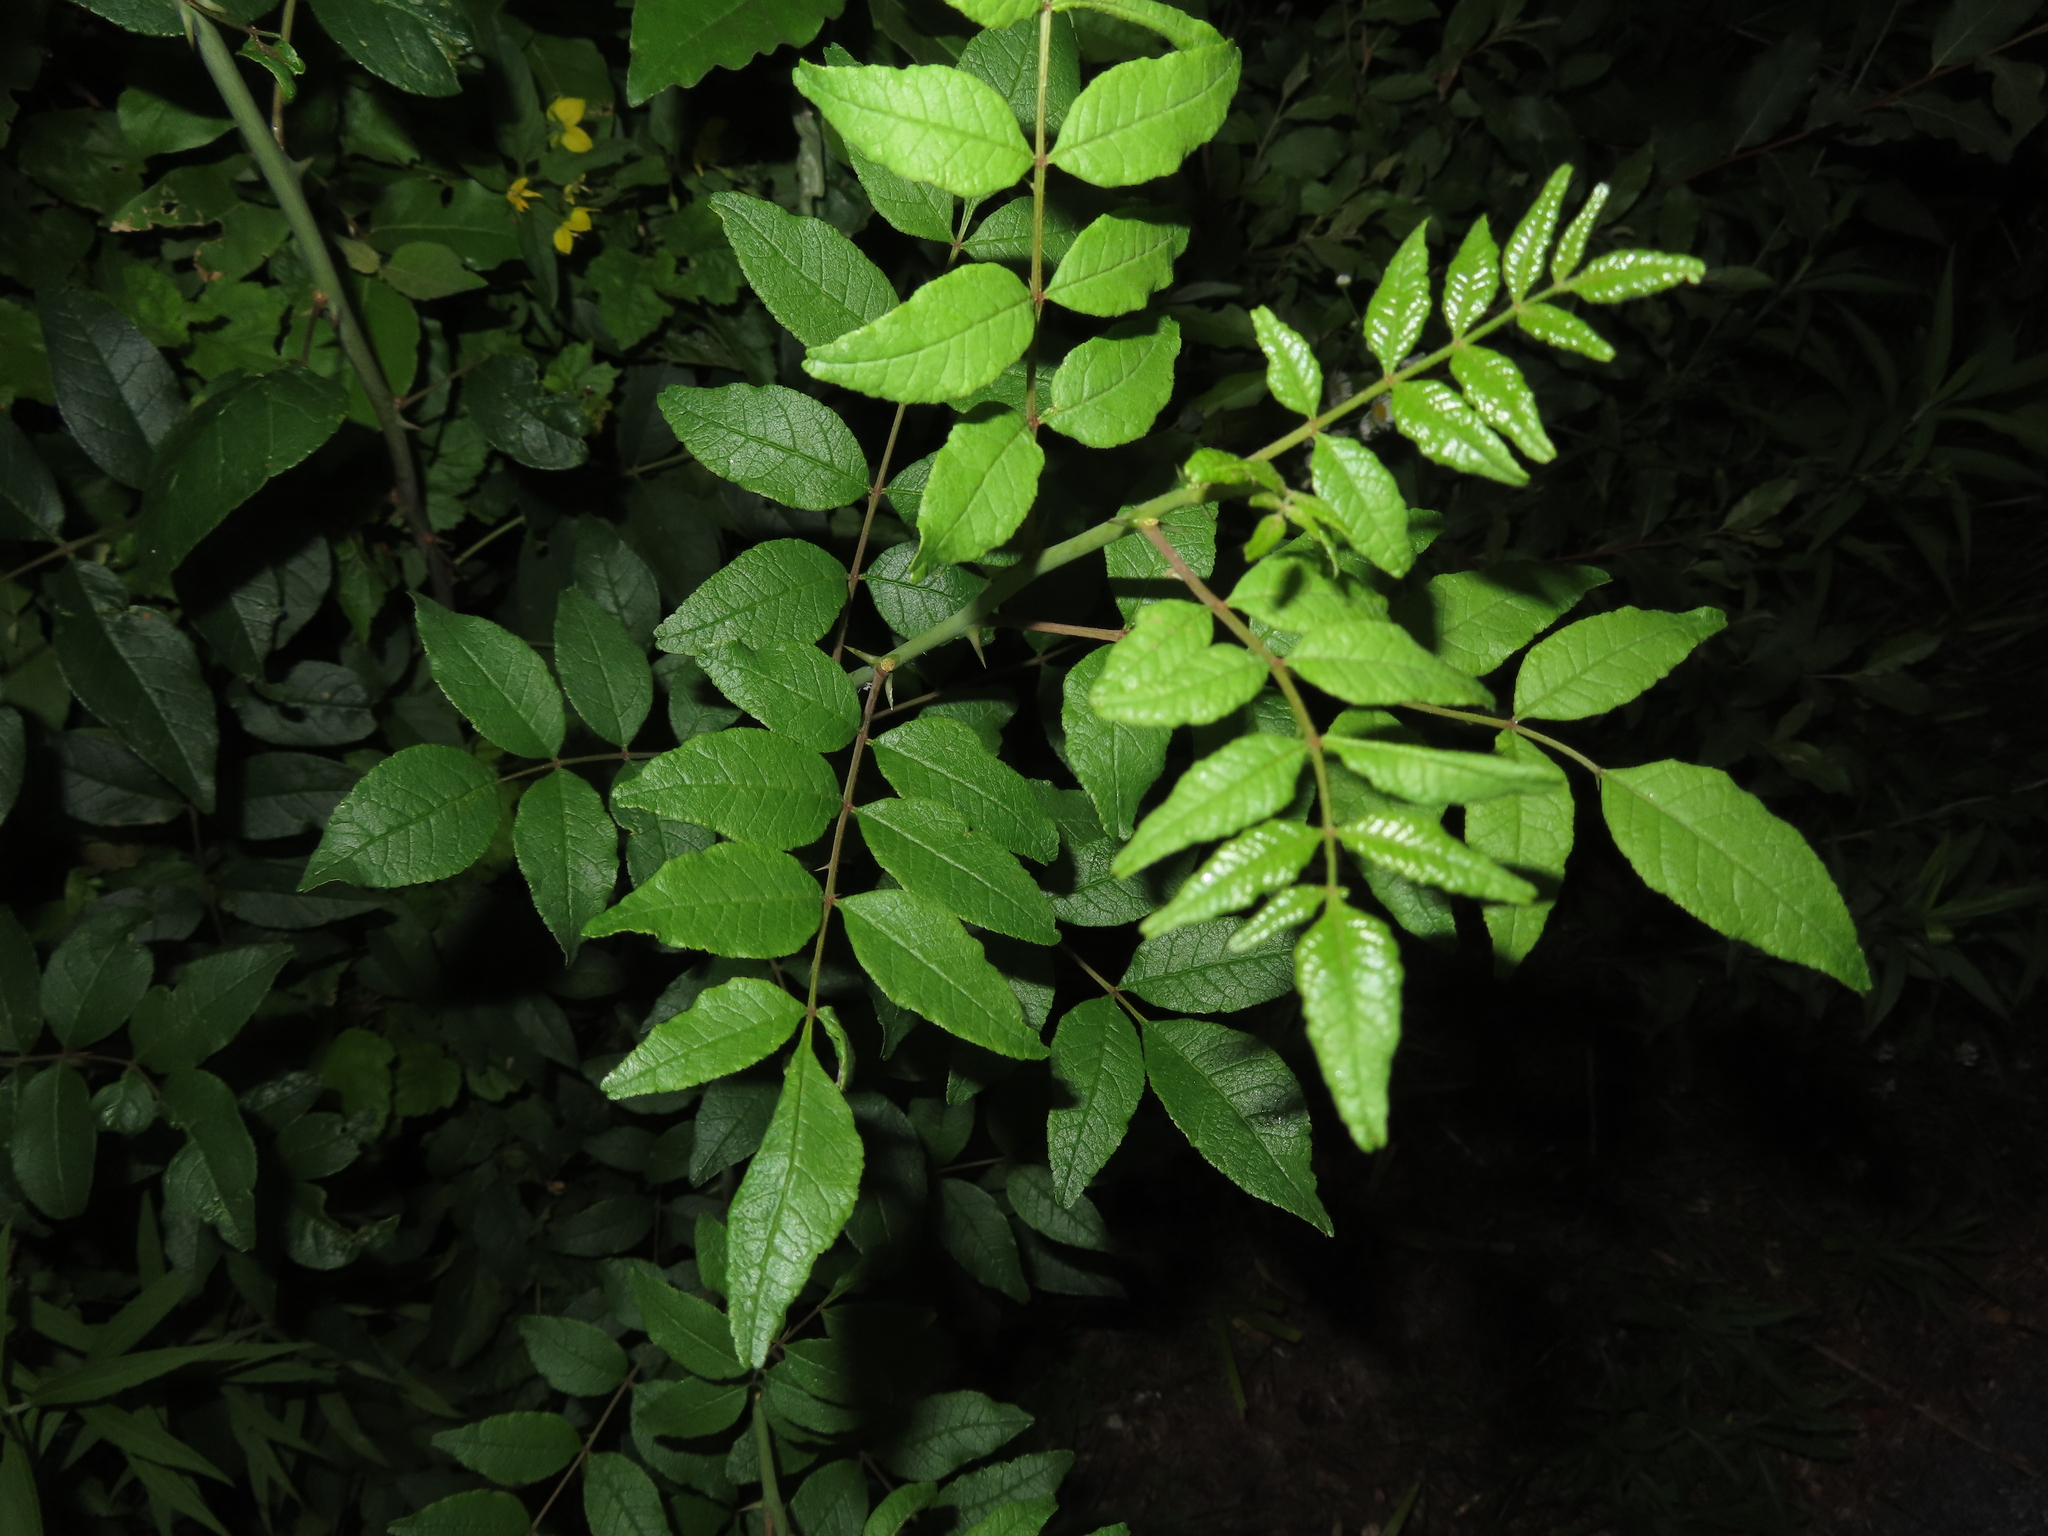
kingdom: Plantae
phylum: Tracheophyta
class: Magnoliopsida
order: Sapindales
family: Rutaceae
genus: Zanthoxylum
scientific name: Zanthoxylum americanum
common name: Northern prickly-ash
